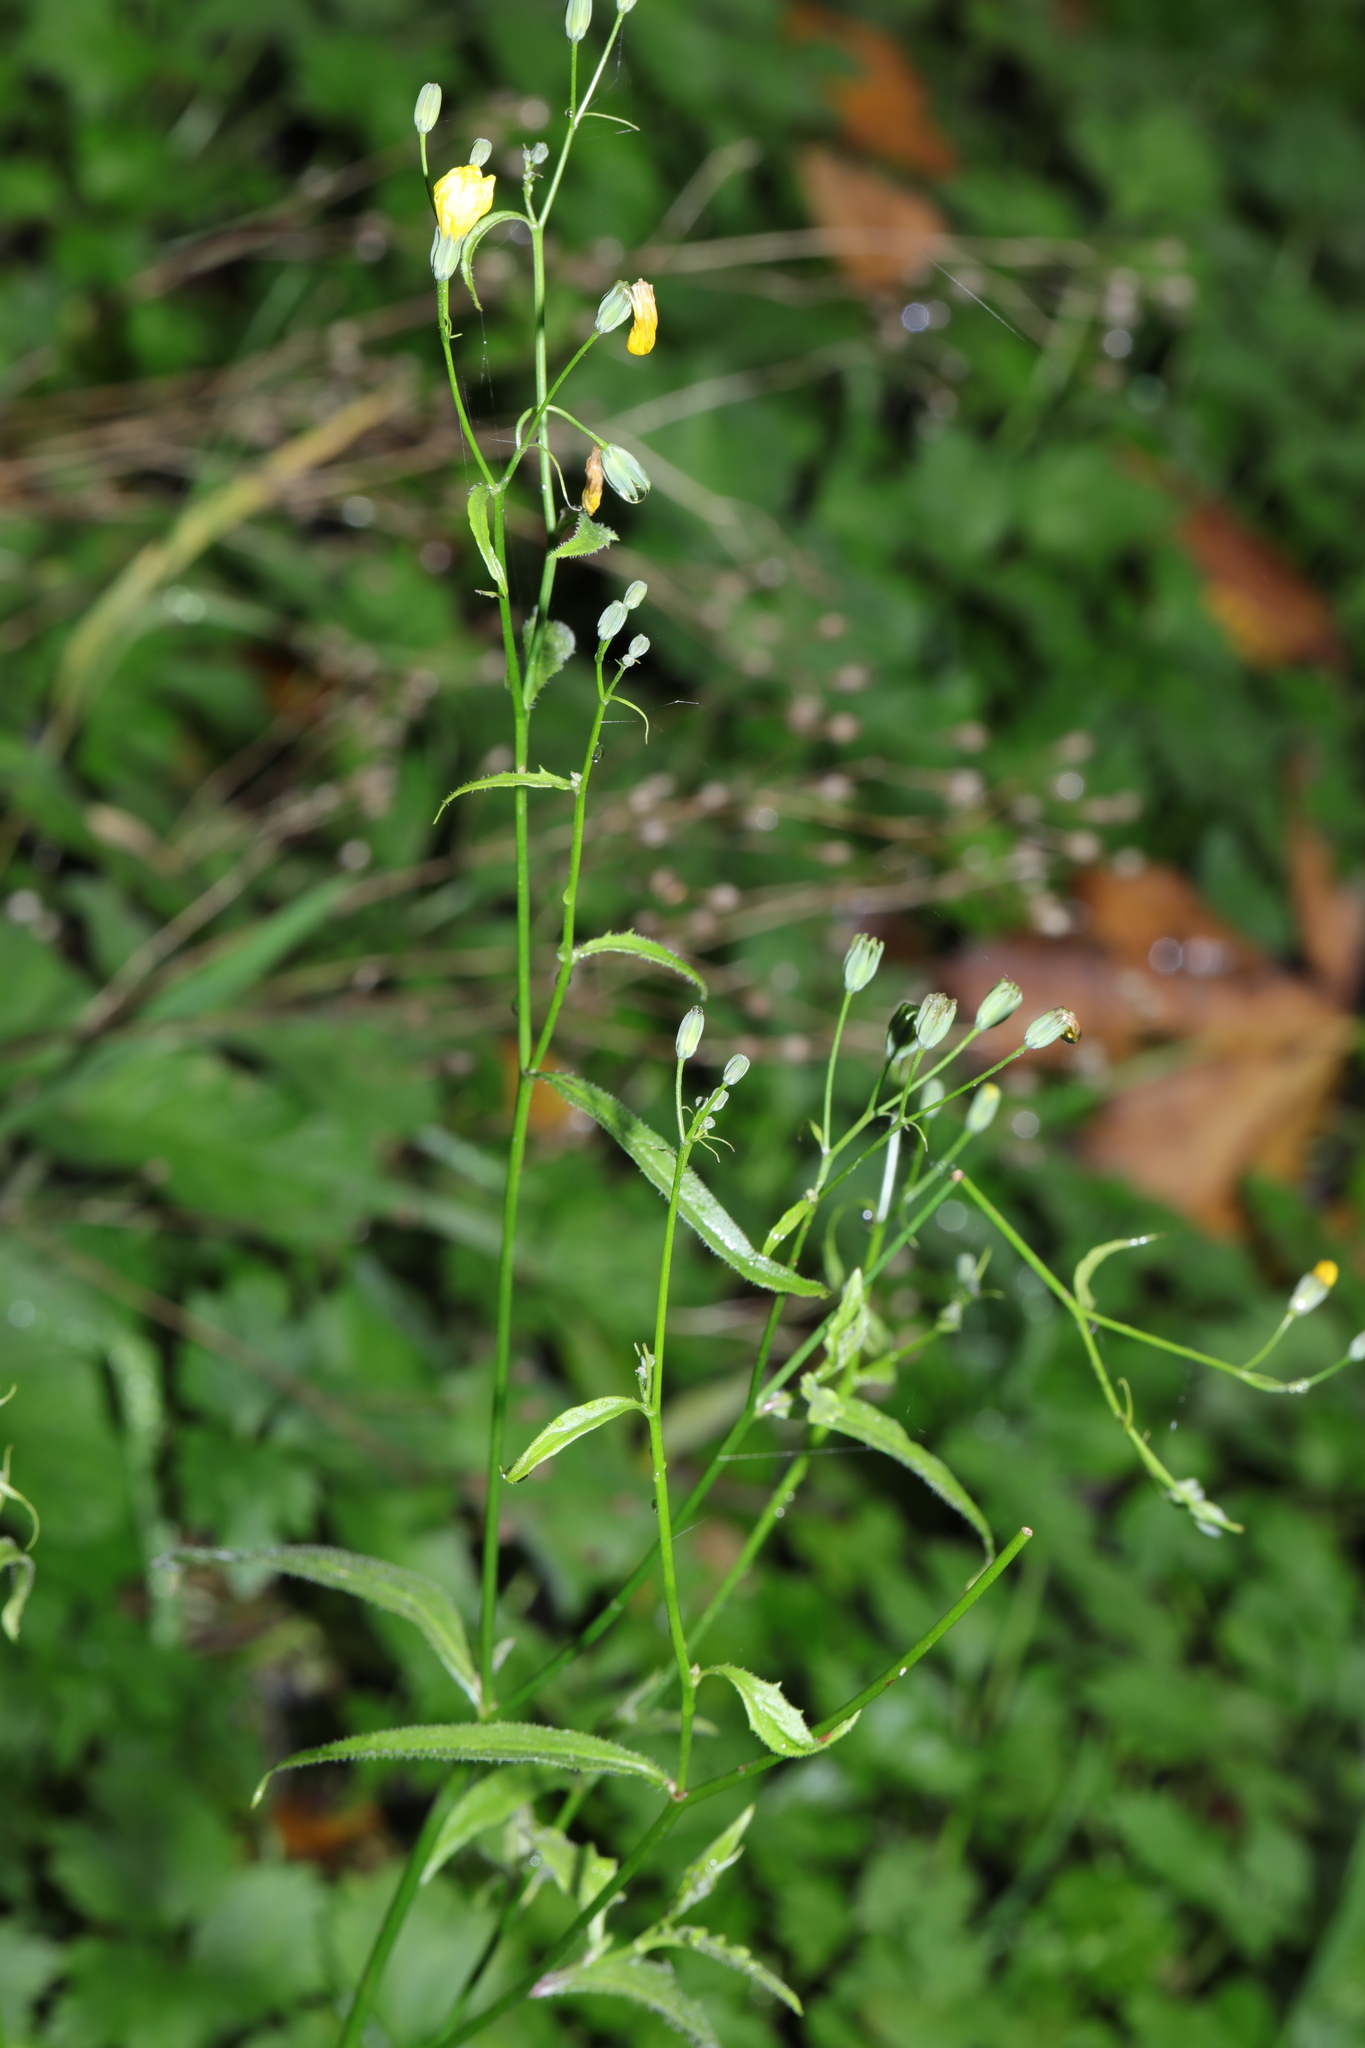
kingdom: Plantae
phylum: Tracheophyta
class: Magnoliopsida
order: Asterales
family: Asteraceae
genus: Lapsana
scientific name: Lapsana communis
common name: Nipplewort
